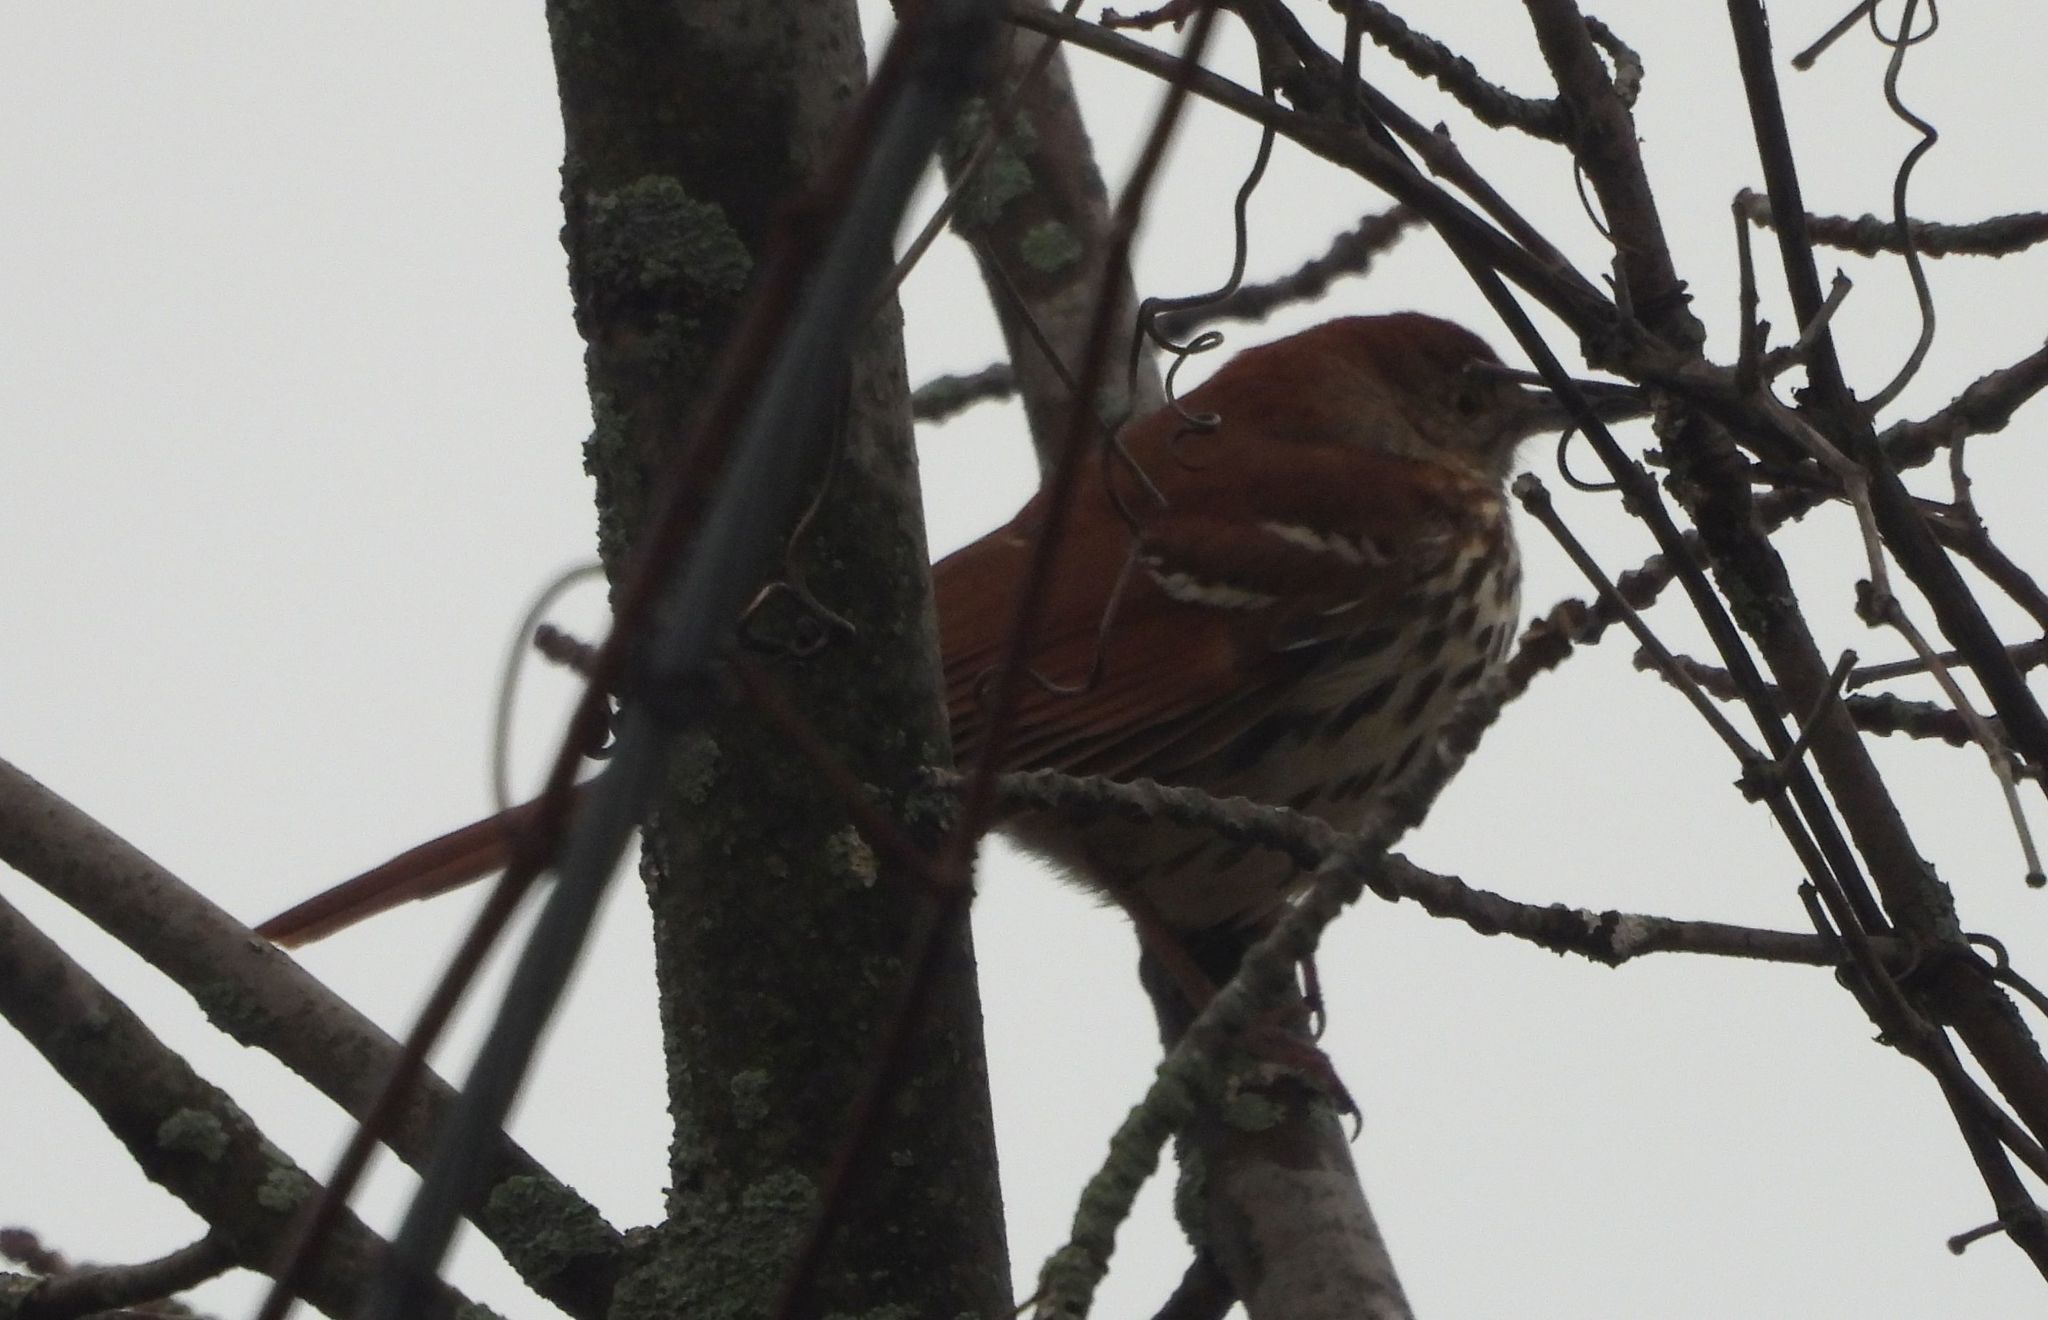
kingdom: Animalia
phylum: Chordata
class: Aves
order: Passeriformes
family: Mimidae
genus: Toxostoma
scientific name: Toxostoma rufum
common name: Brown thrasher
